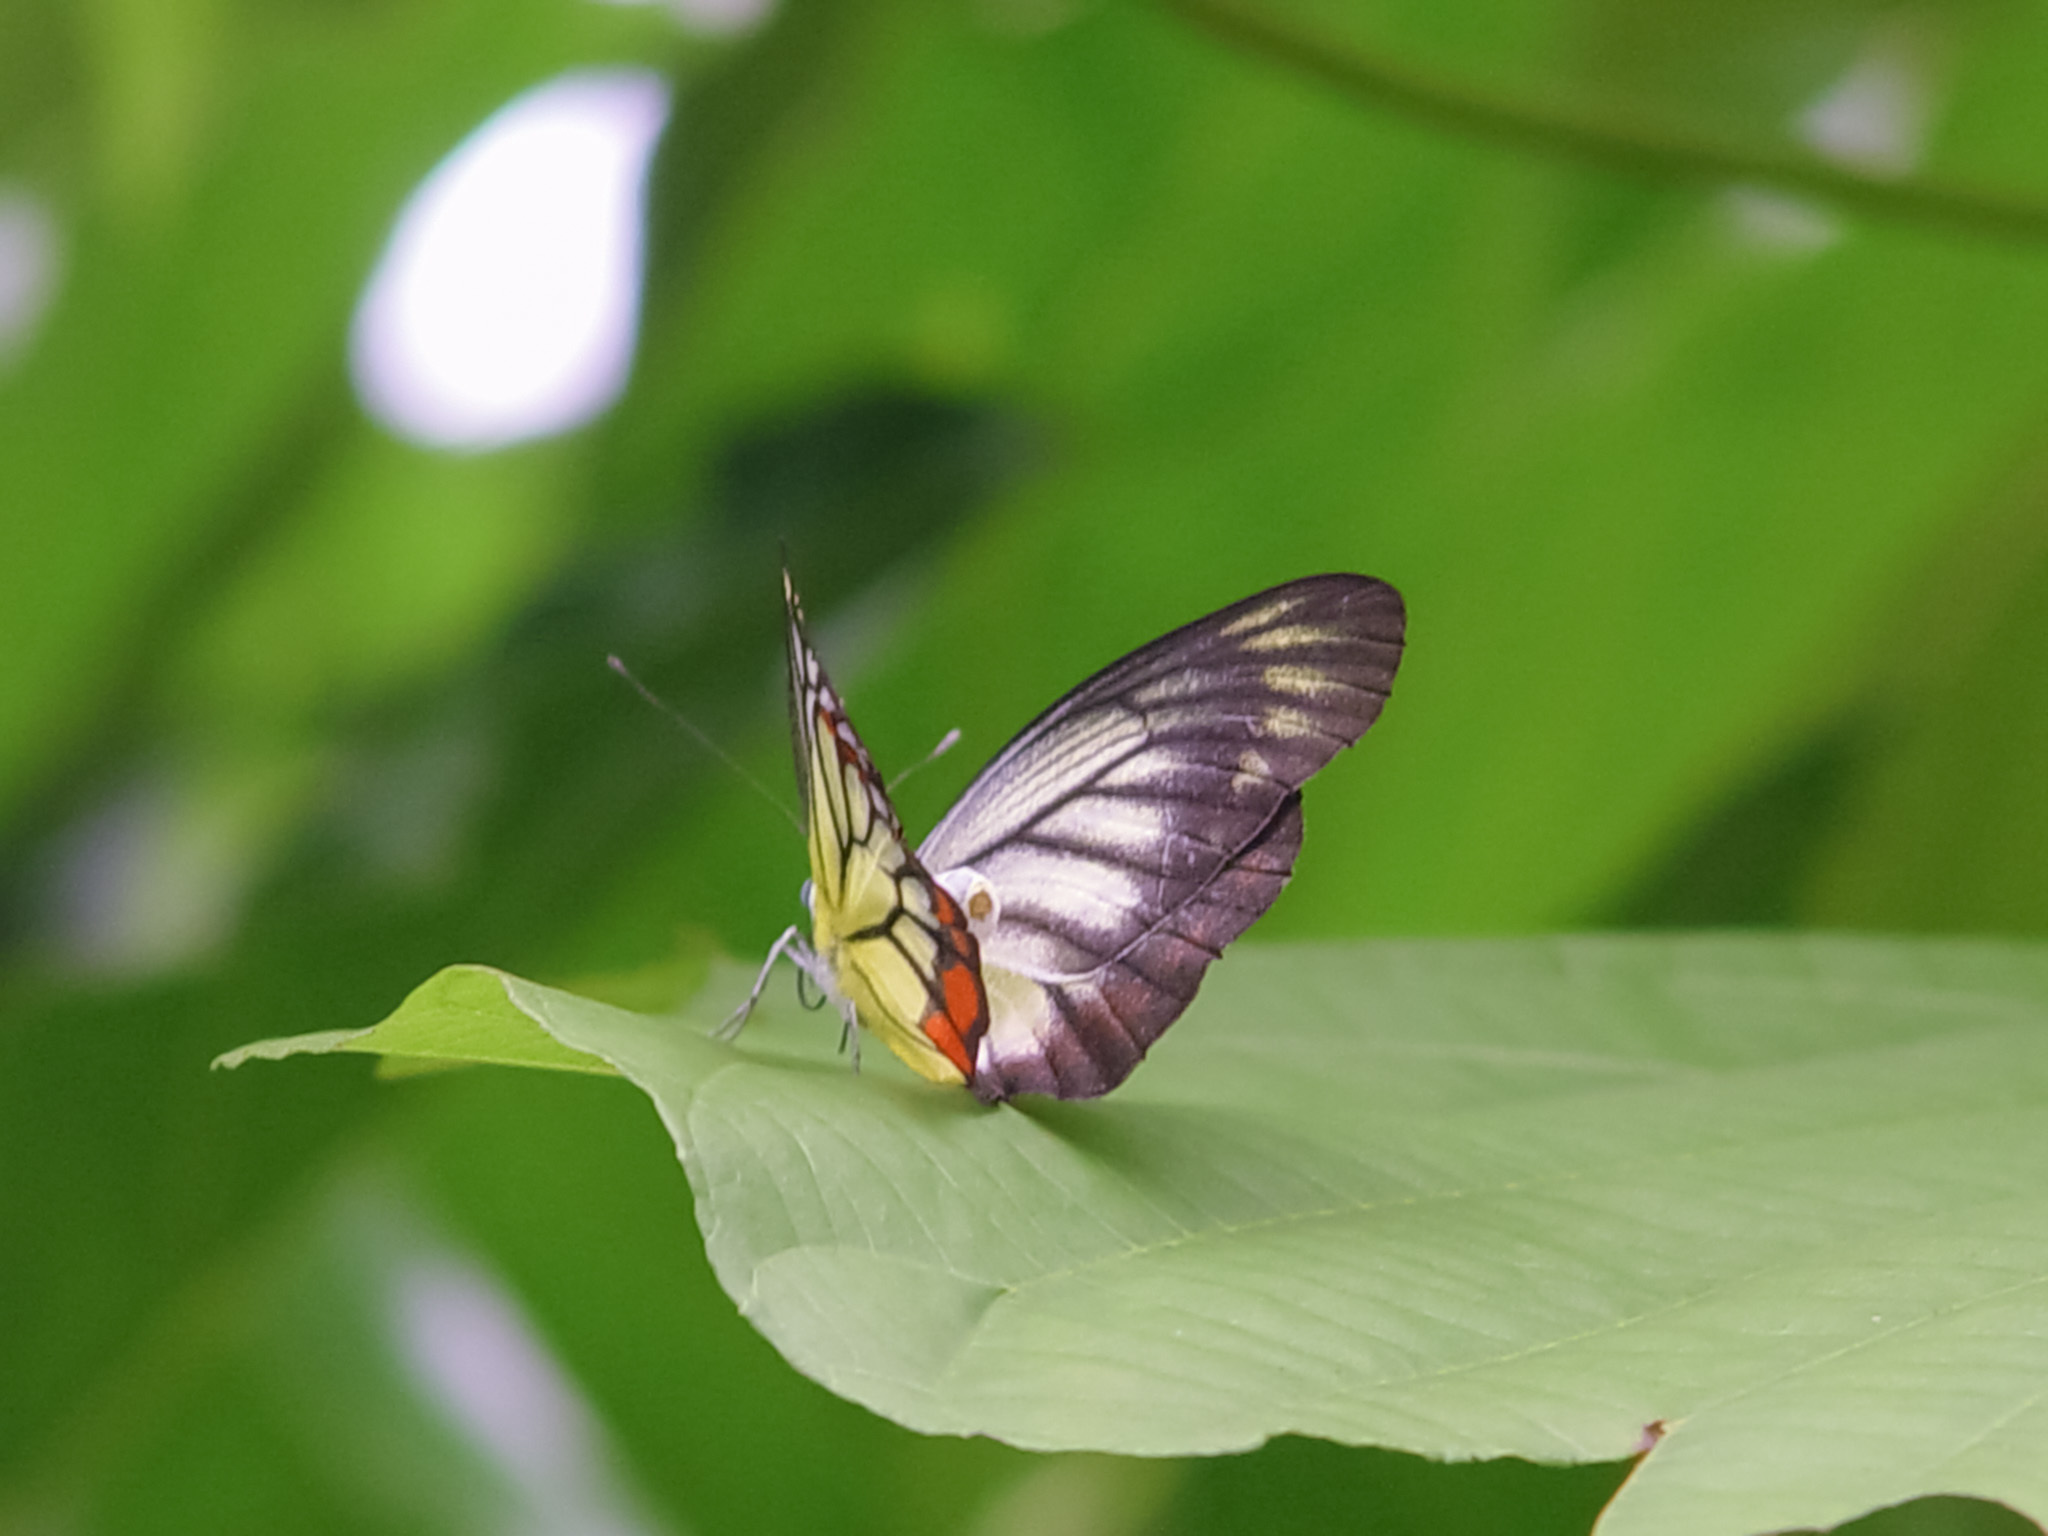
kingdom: Animalia
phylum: Arthropoda
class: Insecta
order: Lepidoptera
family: Pieridae
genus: Delias
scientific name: Delias hyparete
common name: Painted jezebel
